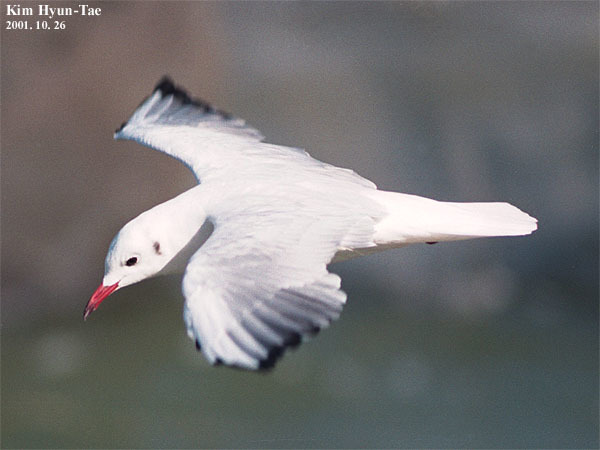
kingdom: Animalia
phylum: Chordata
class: Aves
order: Charadriiformes
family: Laridae
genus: Chroicocephalus
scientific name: Chroicocephalus ridibundus
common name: Black-headed gull
